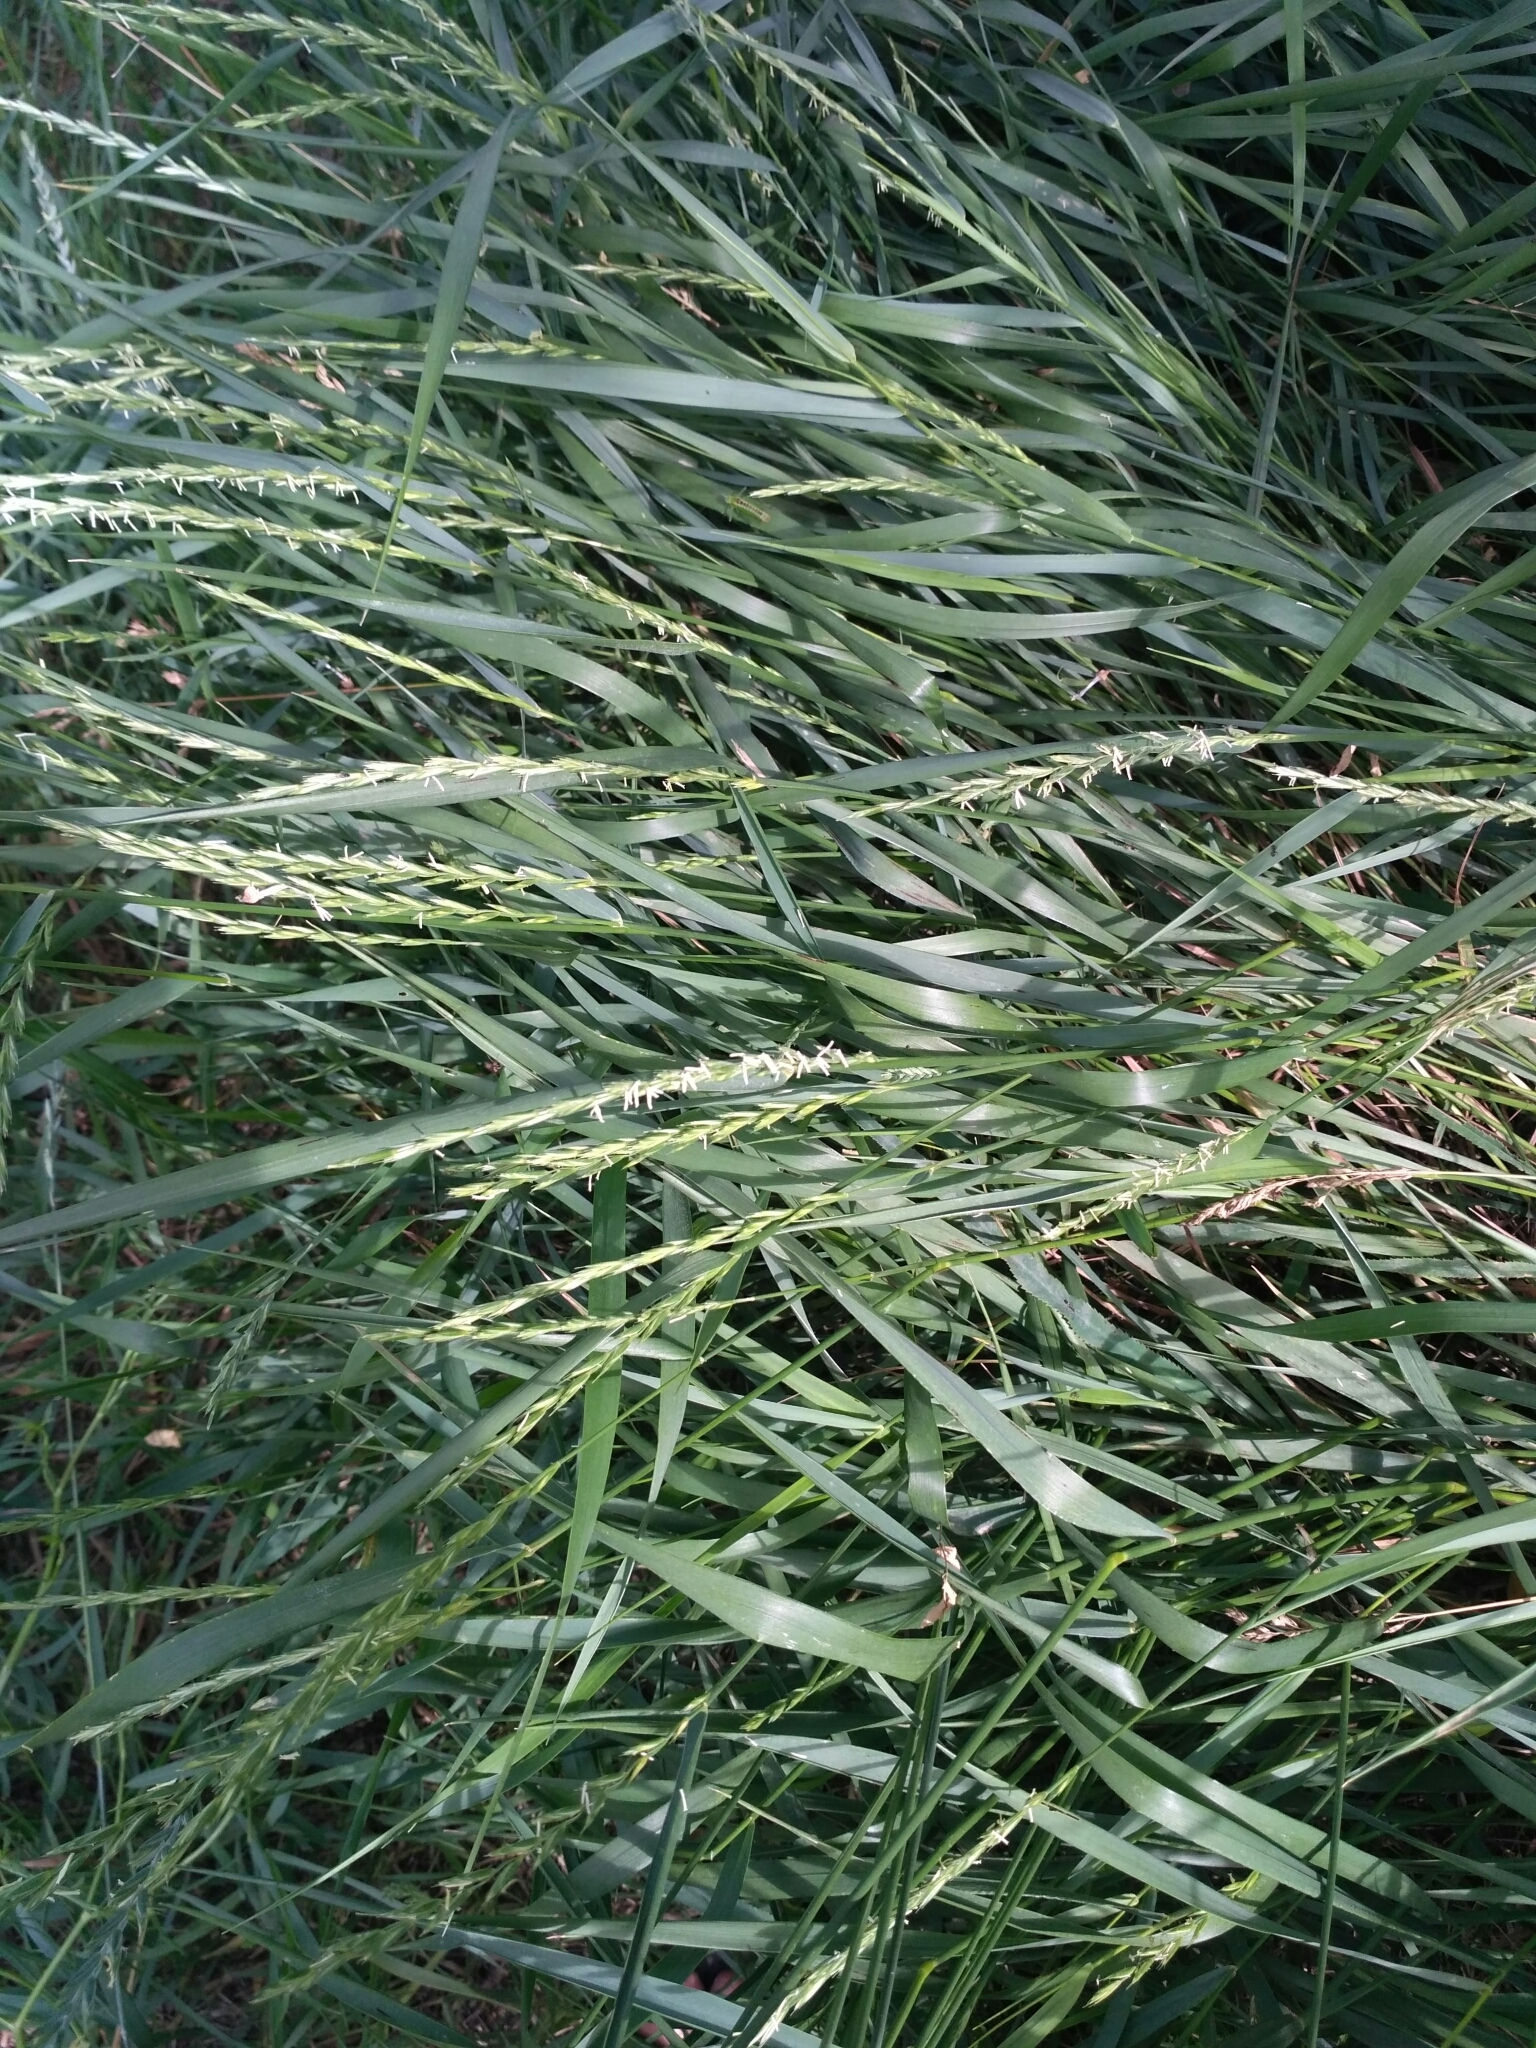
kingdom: Plantae
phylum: Tracheophyta
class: Liliopsida
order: Poales
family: Poaceae
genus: Elymus
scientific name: Elymus repens
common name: Quackgrass
